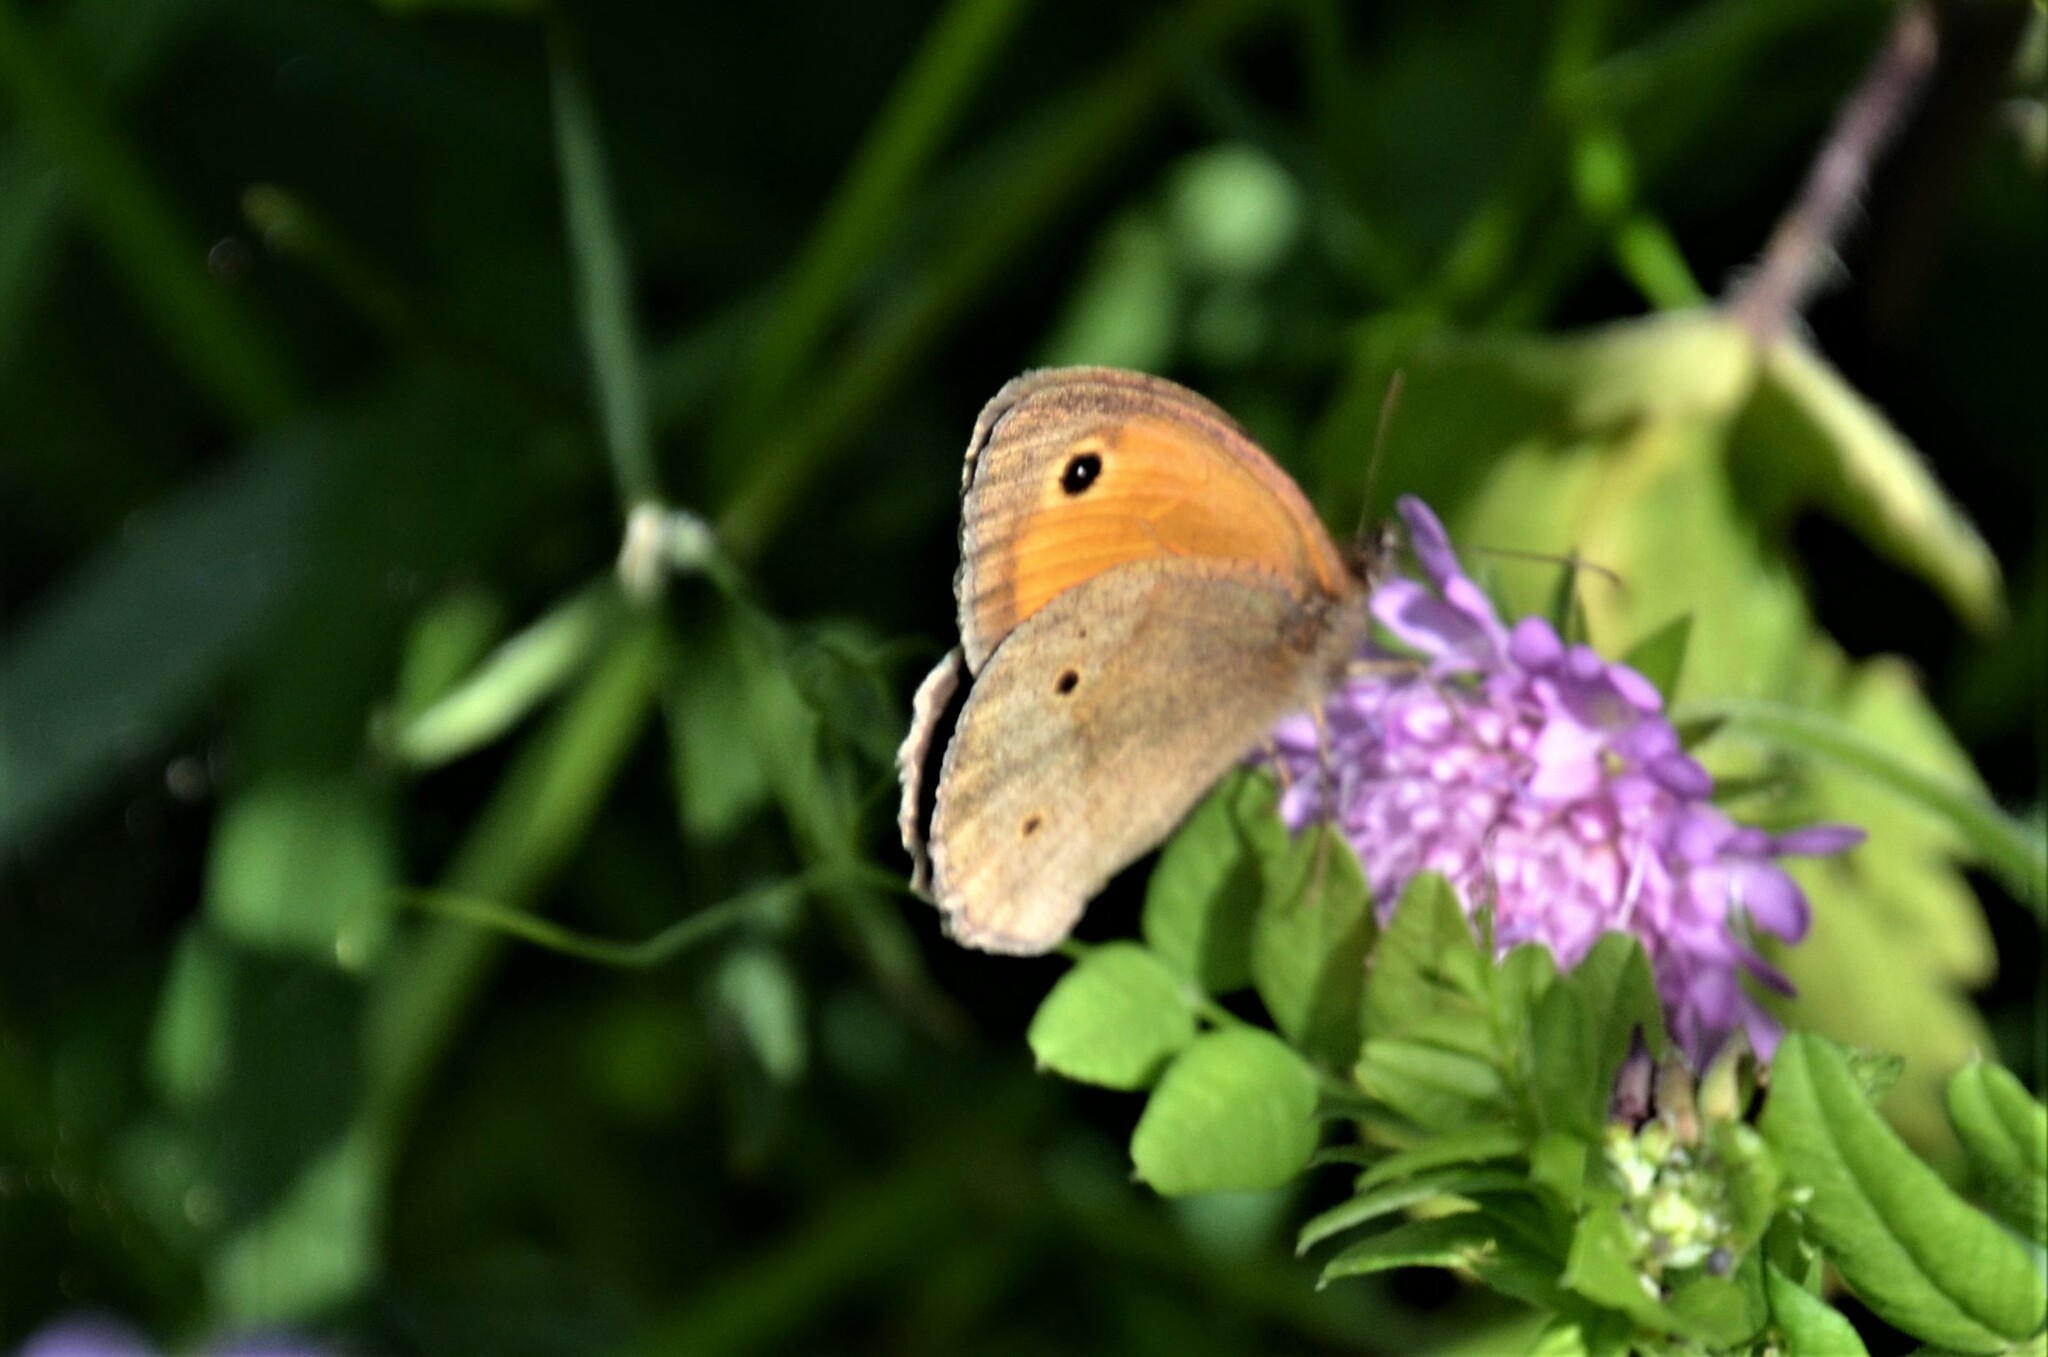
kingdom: Animalia
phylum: Arthropoda
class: Insecta
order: Lepidoptera
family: Nymphalidae
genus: Maniola
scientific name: Maniola jurtina
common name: Meadow brown
